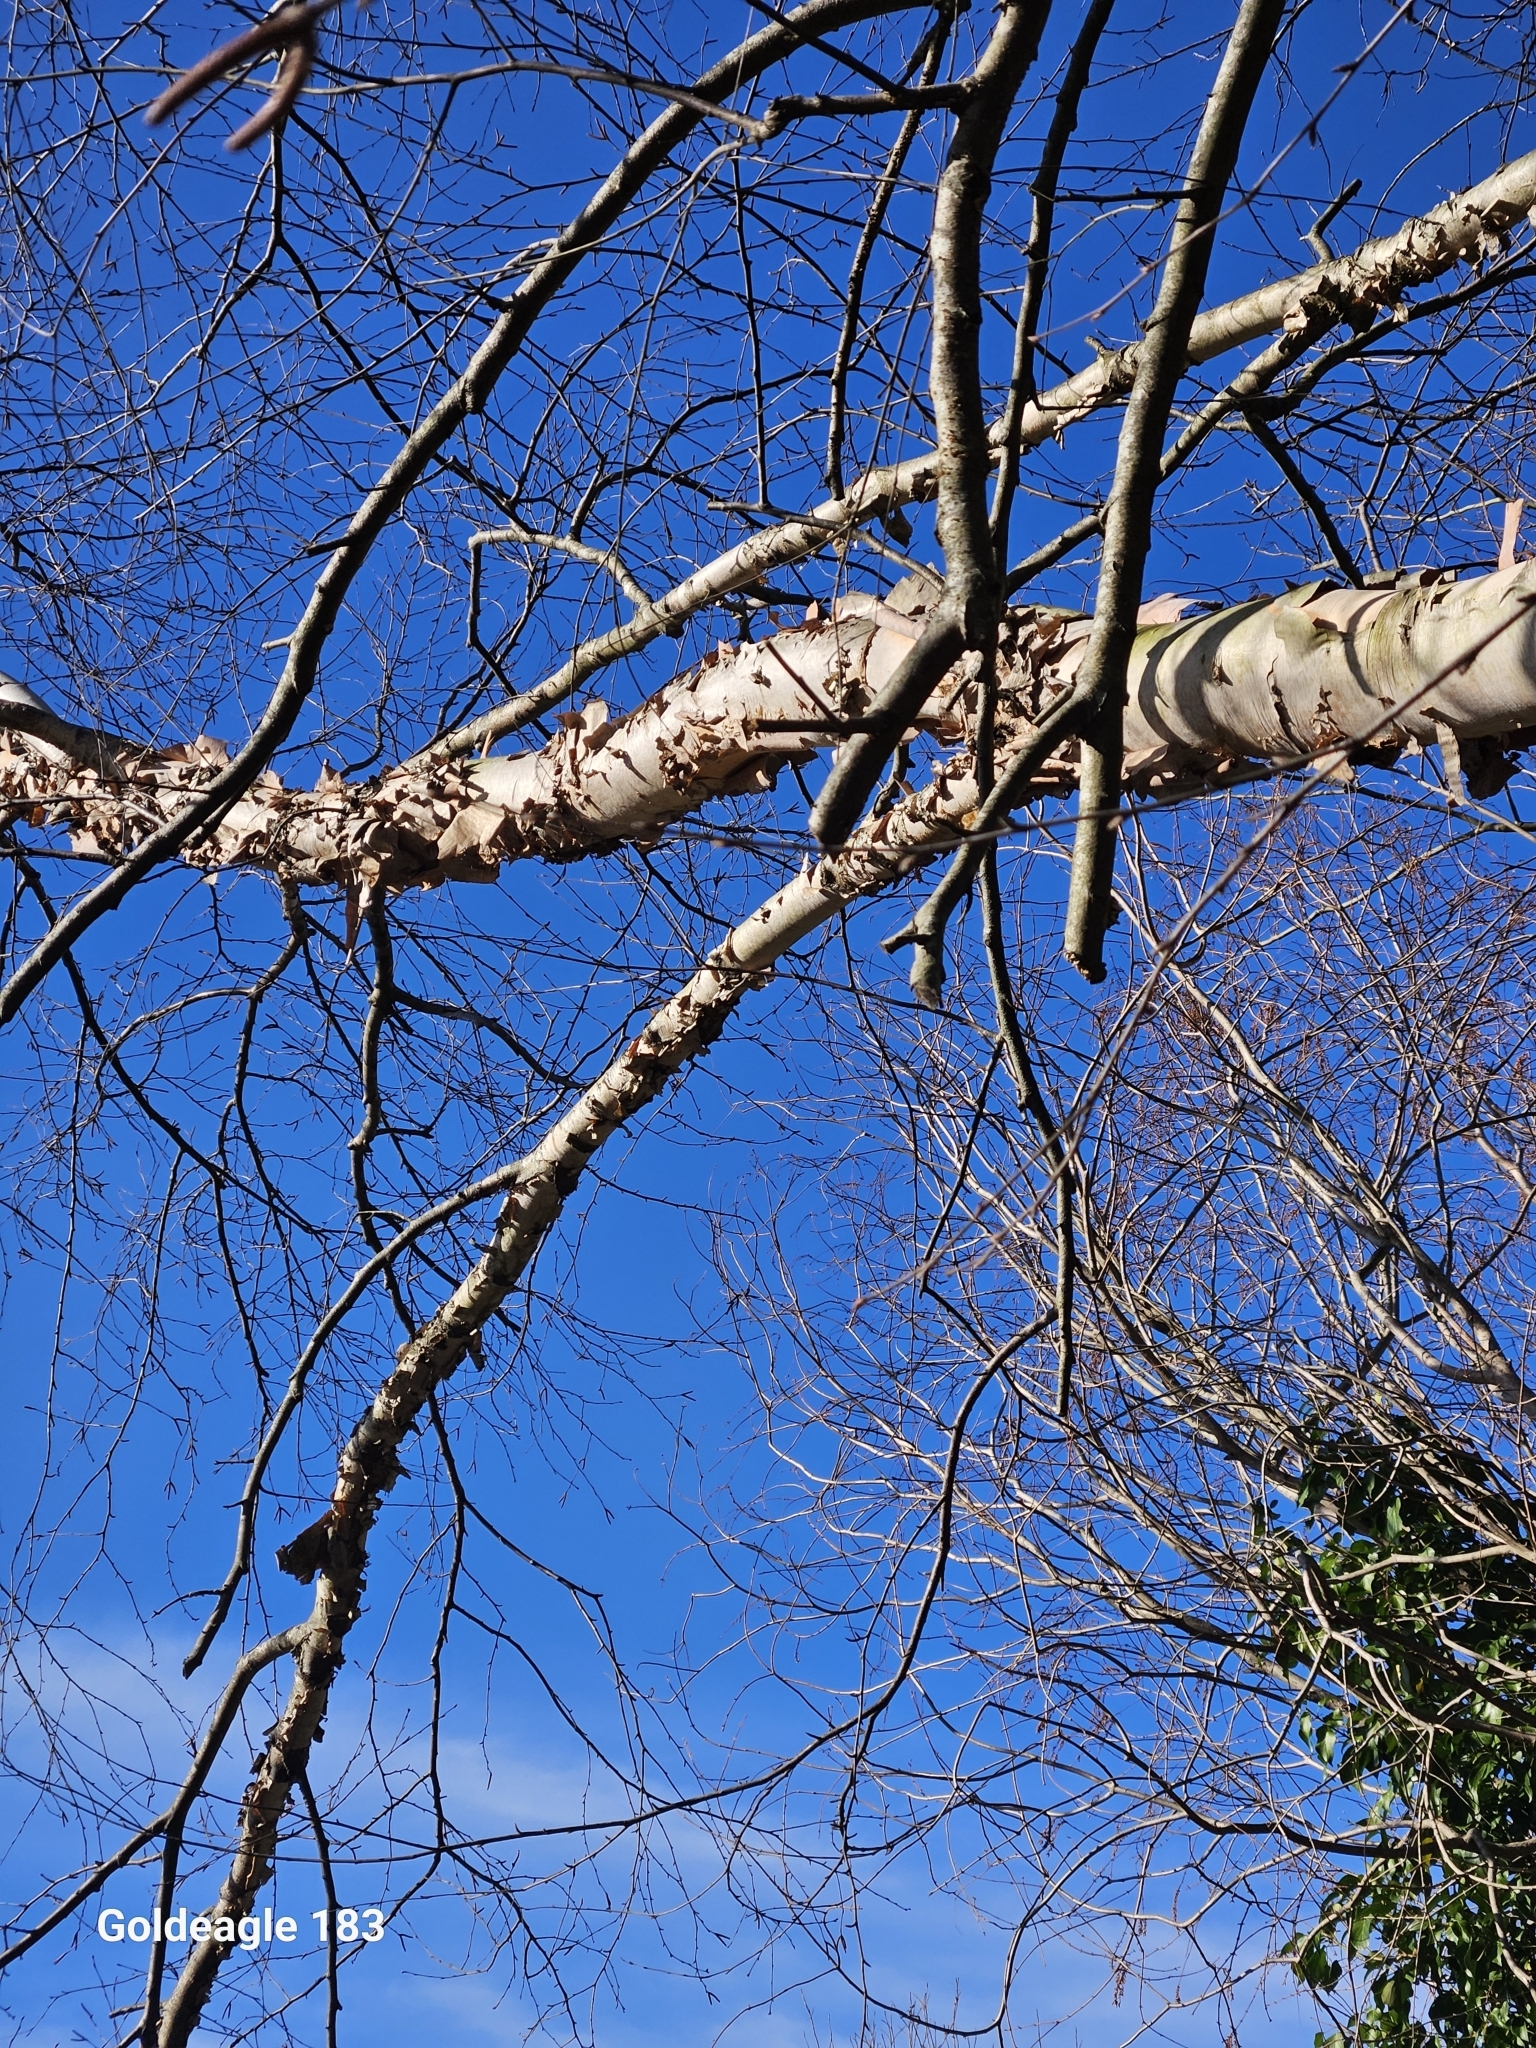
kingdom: Plantae
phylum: Tracheophyta
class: Magnoliopsida
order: Fagales
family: Betulaceae
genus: Betula
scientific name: Betula nigra
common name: Black birch
